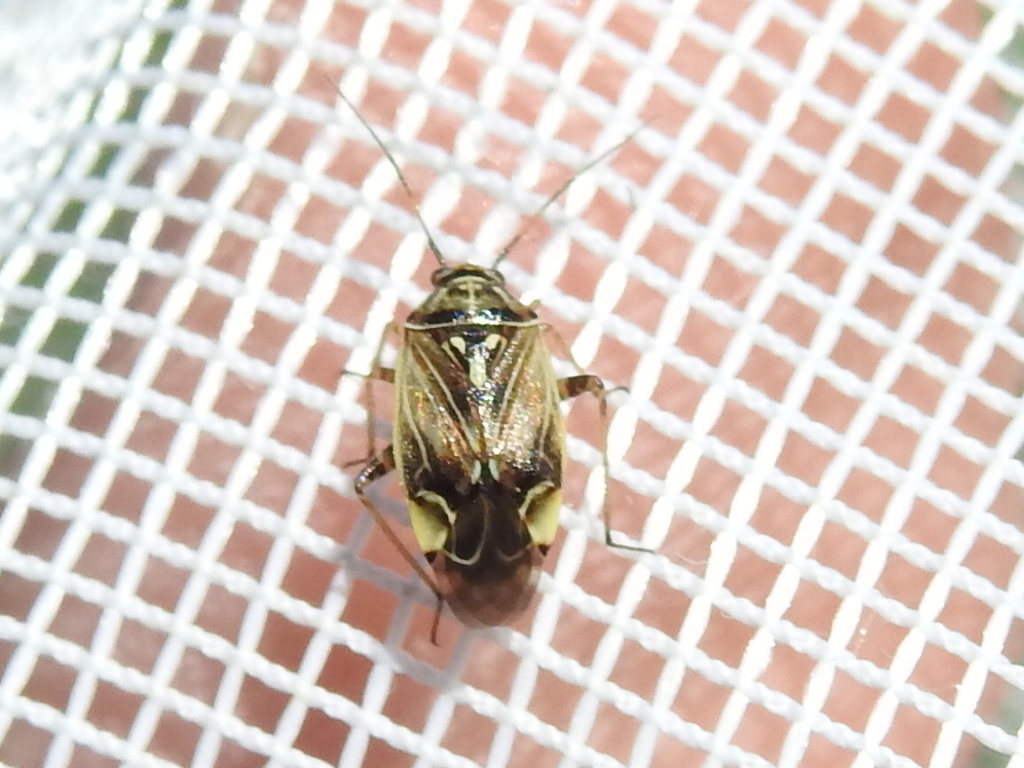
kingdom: Animalia
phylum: Arthropoda
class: Insecta
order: Hemiptera
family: Miridae
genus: Lygus
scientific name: Lygus lineolaris
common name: North american tarnished plant bug
